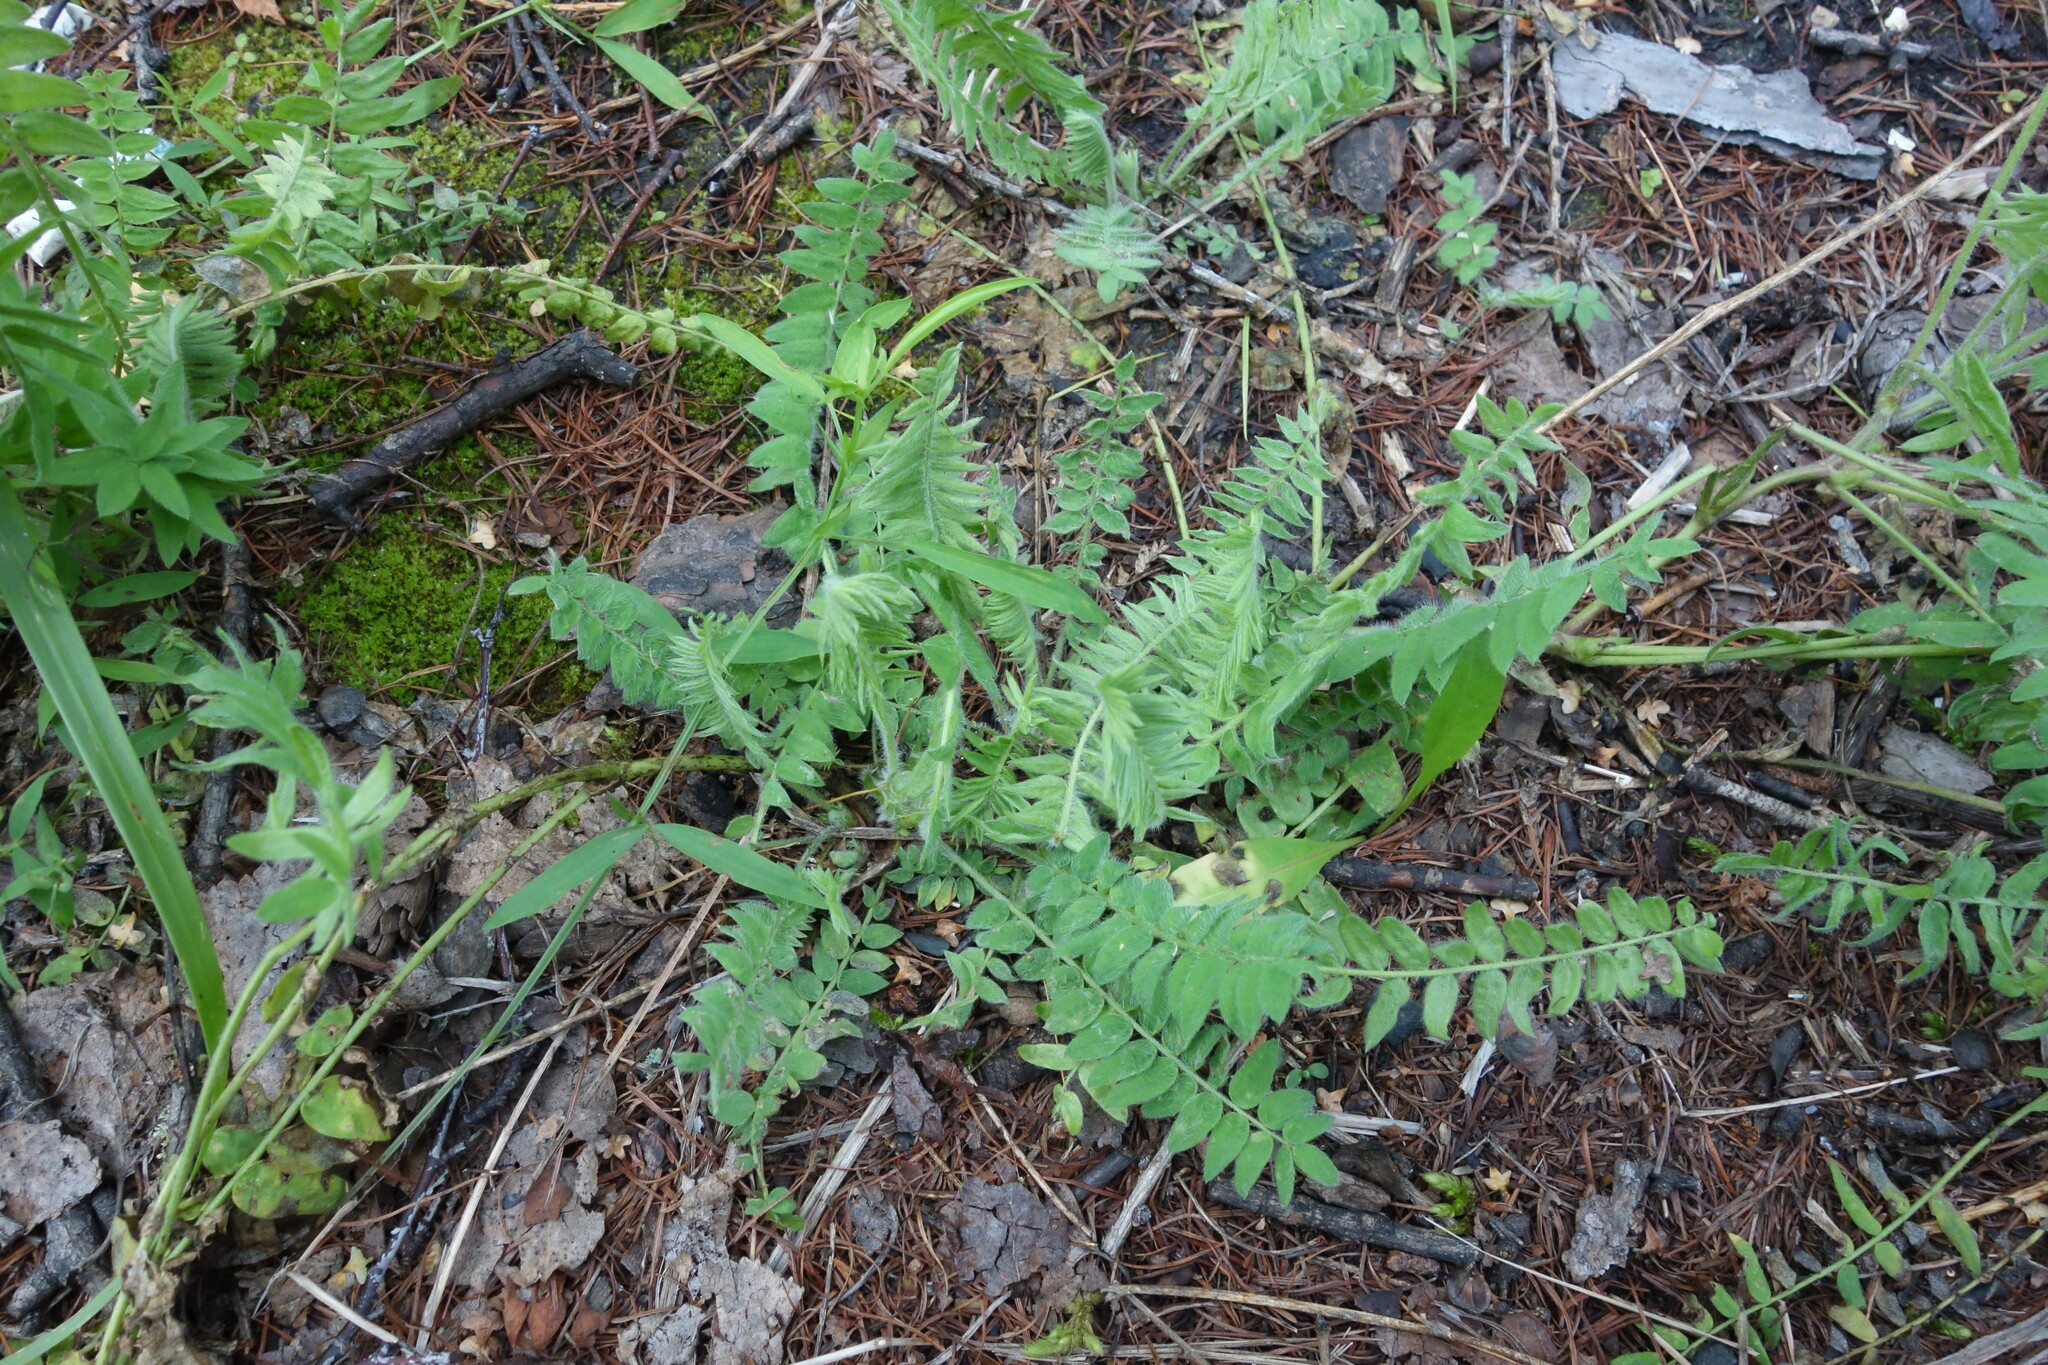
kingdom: Plantae
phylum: Tracheophyta
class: Magnoliopsida
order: Fabales
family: Fabaceae
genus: Oxytropis
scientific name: Oxytropis deflexa
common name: Stemmed oxytrope
